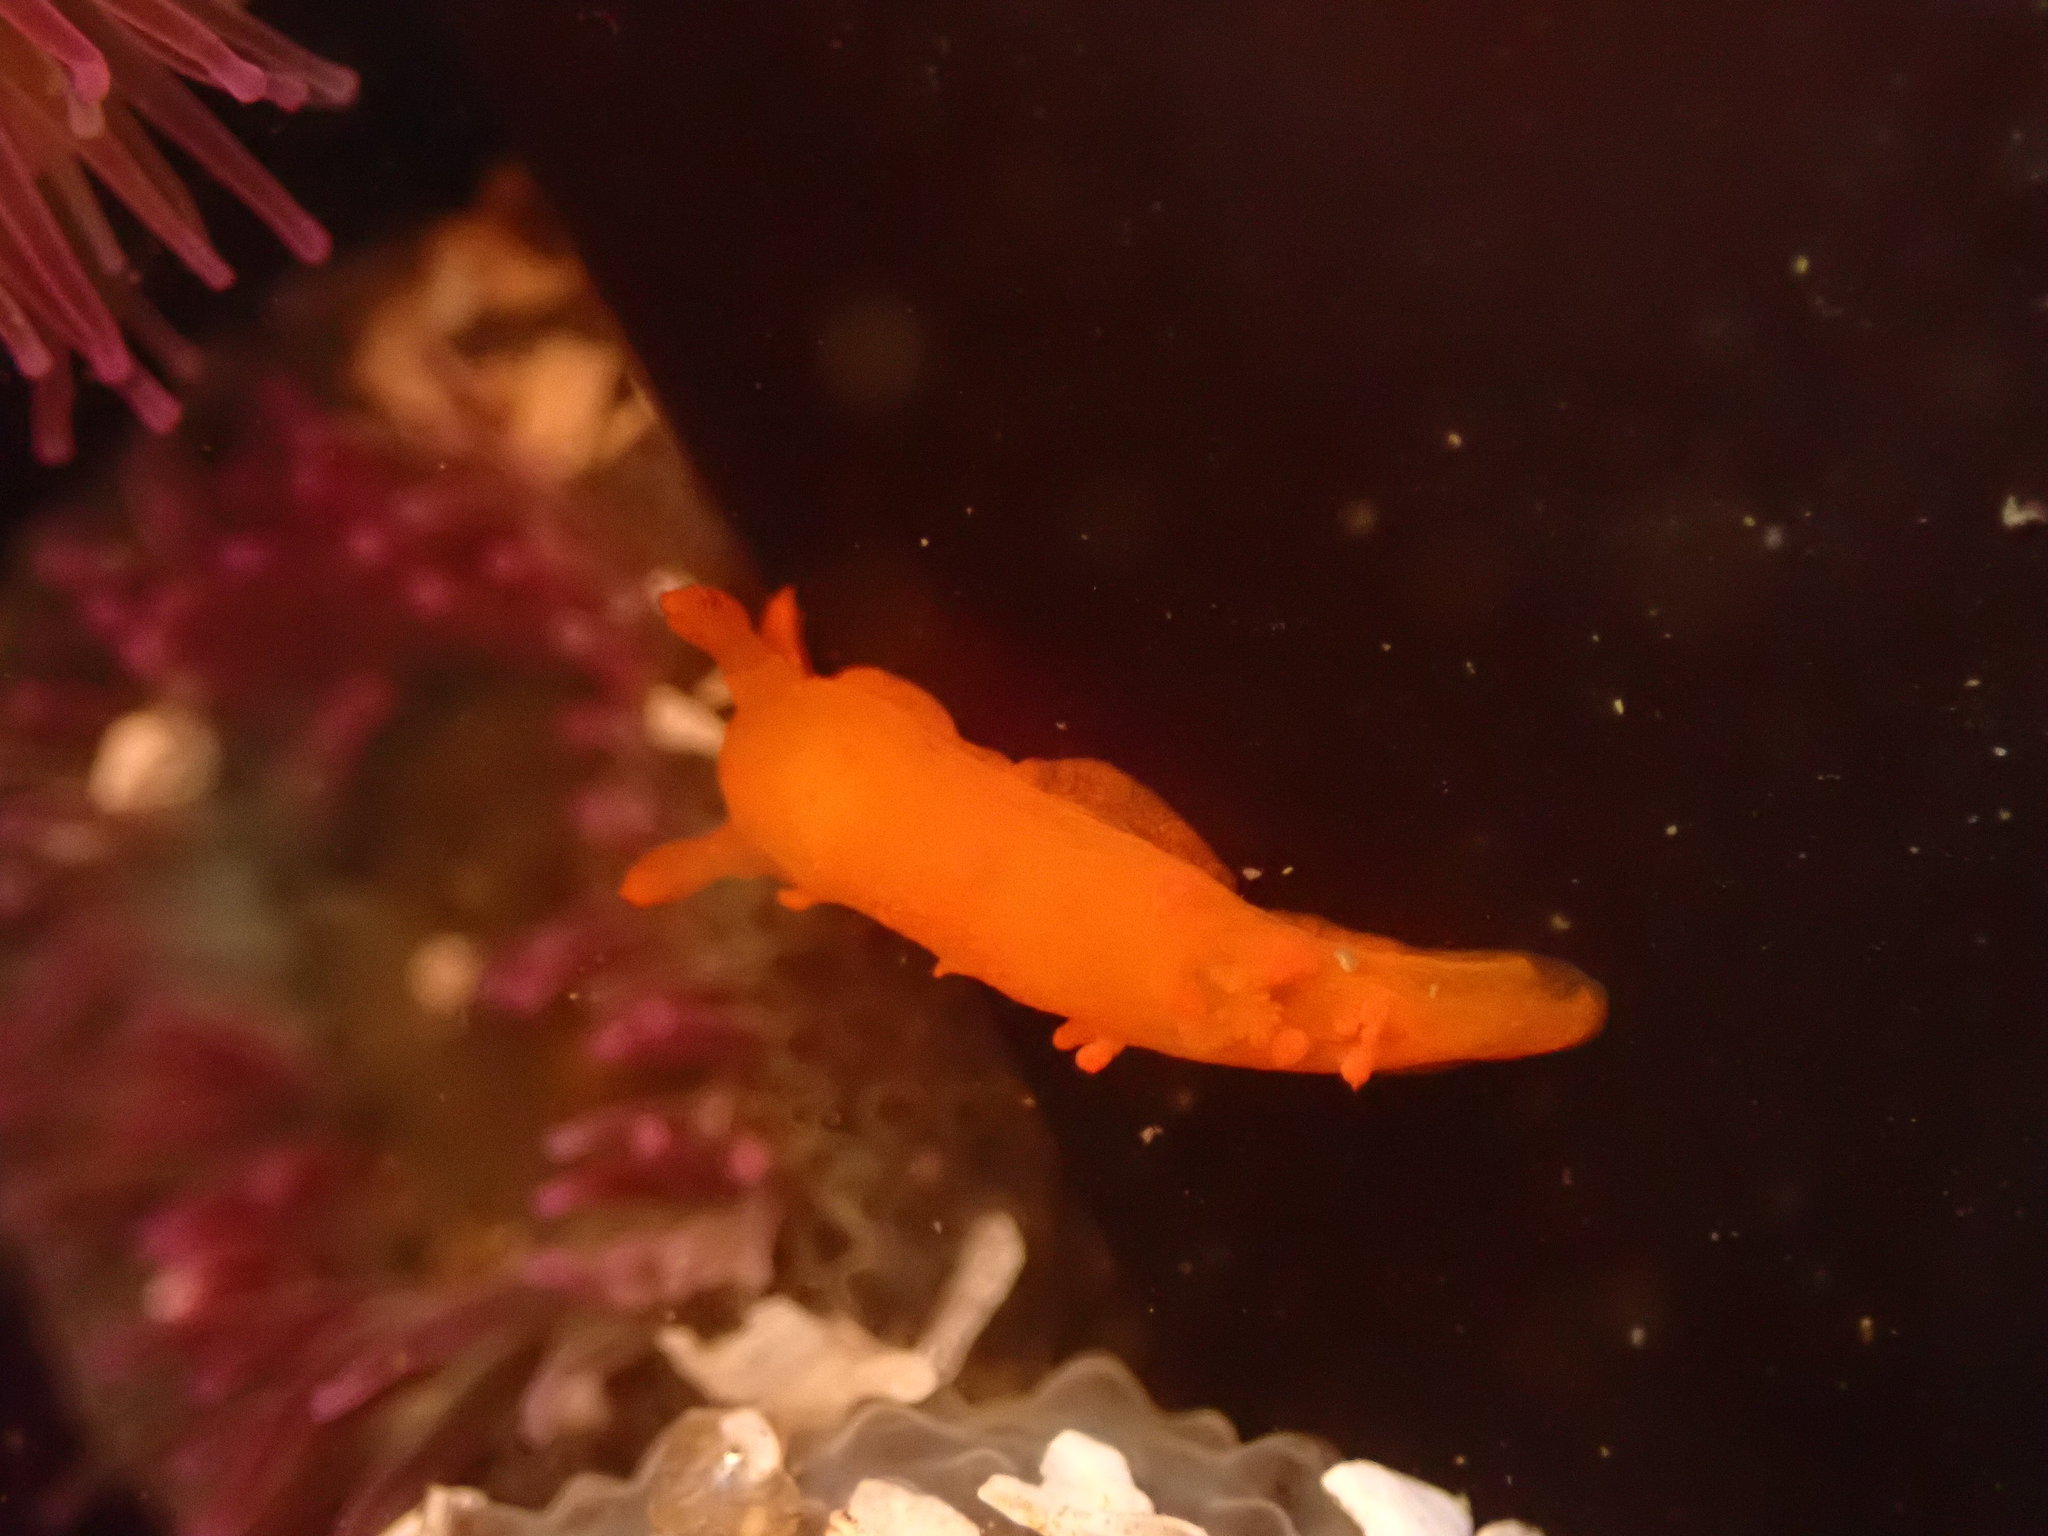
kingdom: Animalia
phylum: Mollusca
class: Gastropoda
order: Nudibranchia
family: Polyceridae
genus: Triopha
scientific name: Triopha maculata
